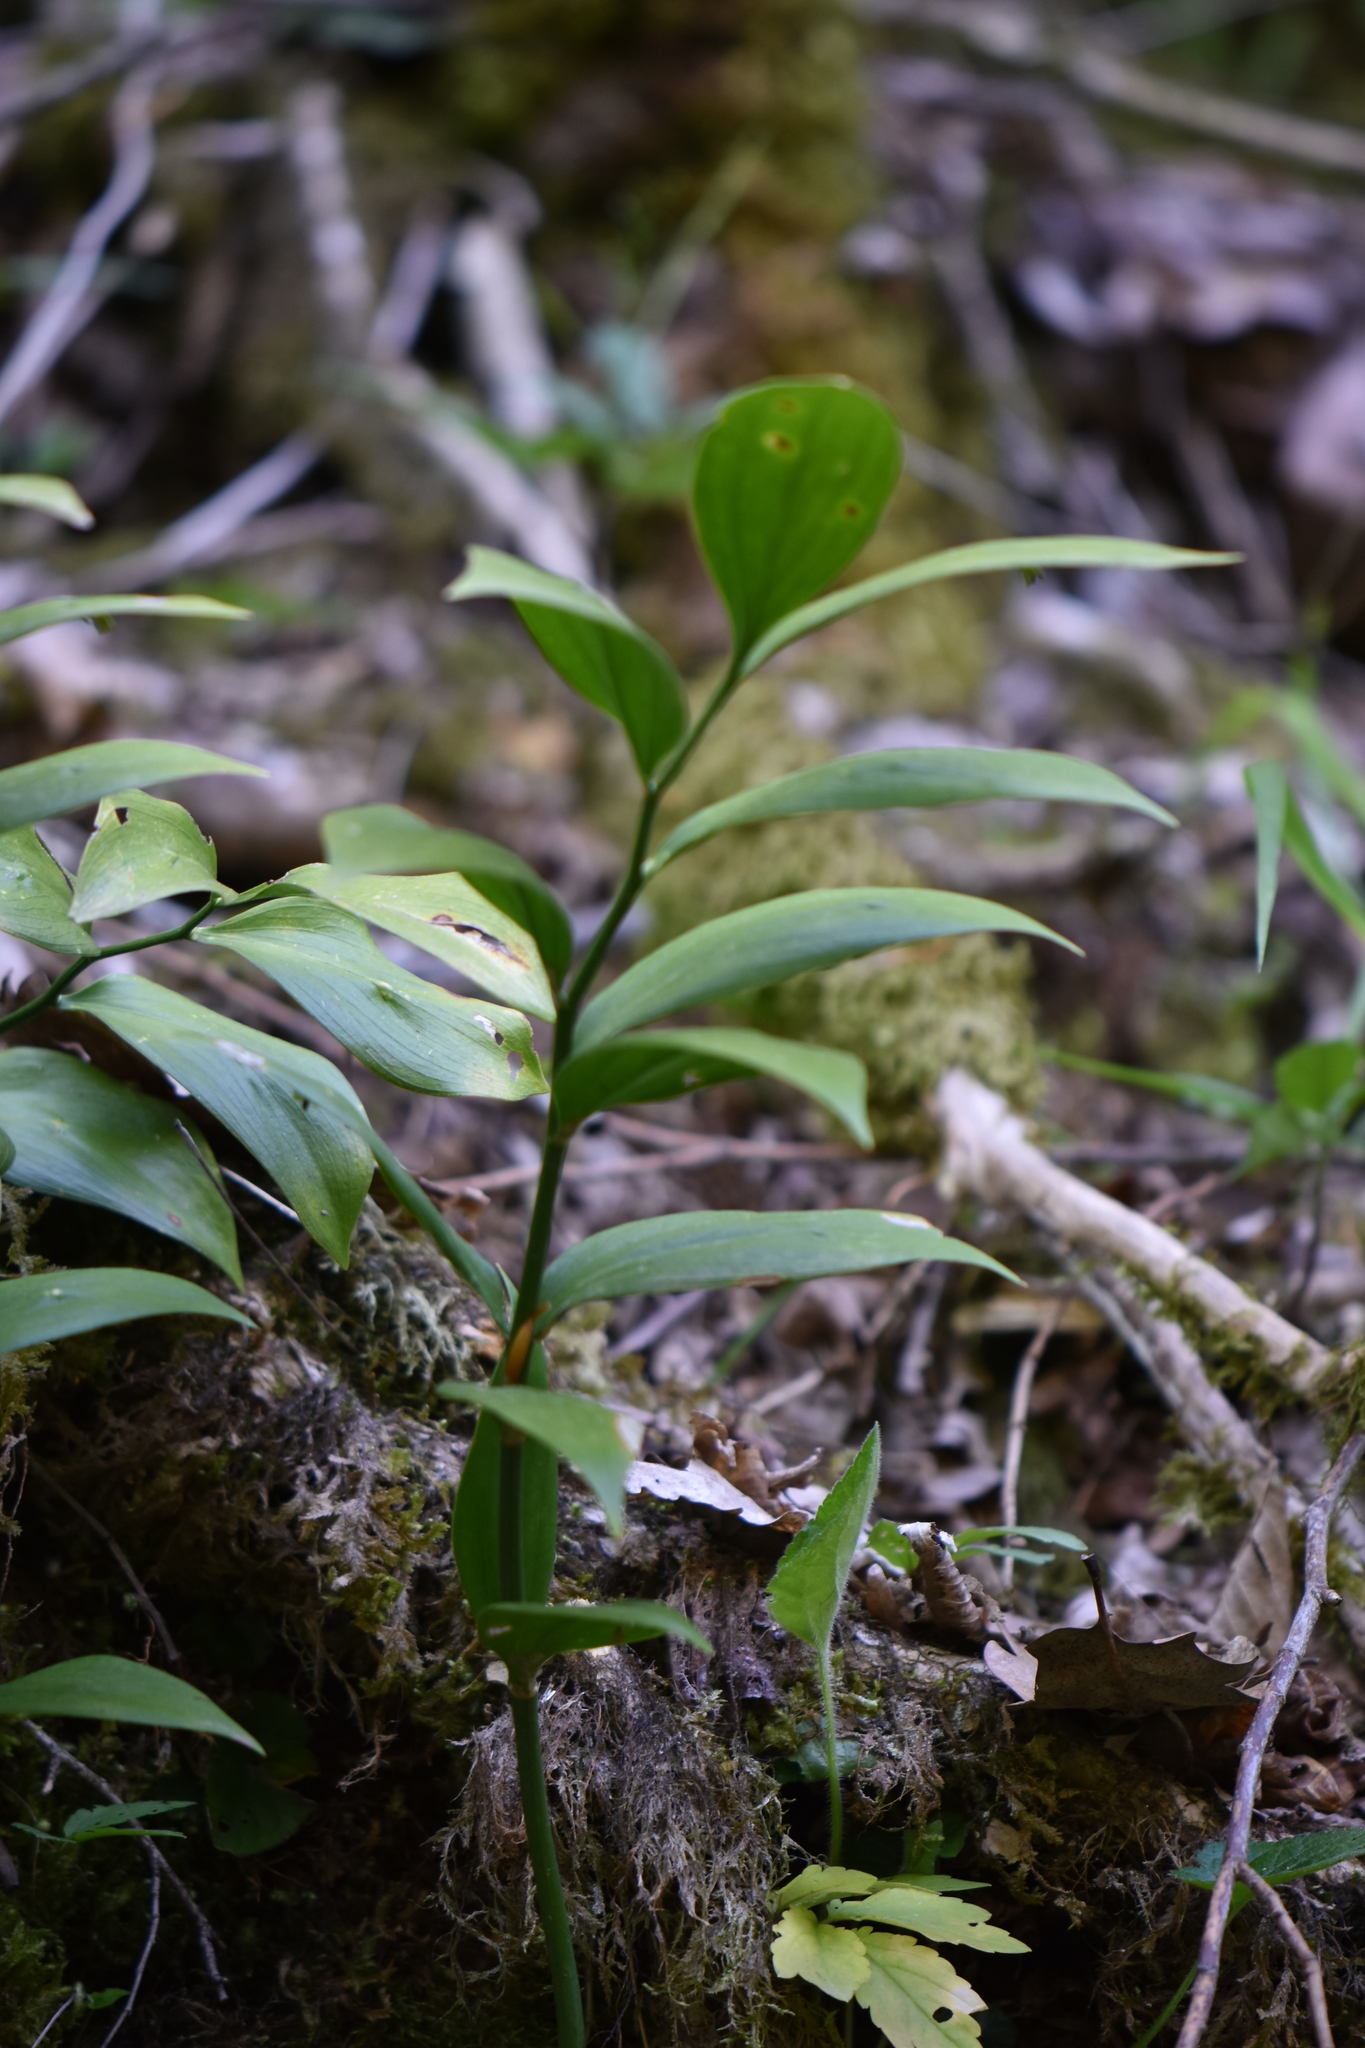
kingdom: Plantae
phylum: Tracheophyta
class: Liliopsida
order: Asparagales
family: Asparagaceae
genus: Ruscus
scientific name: Ruscus colchicus
